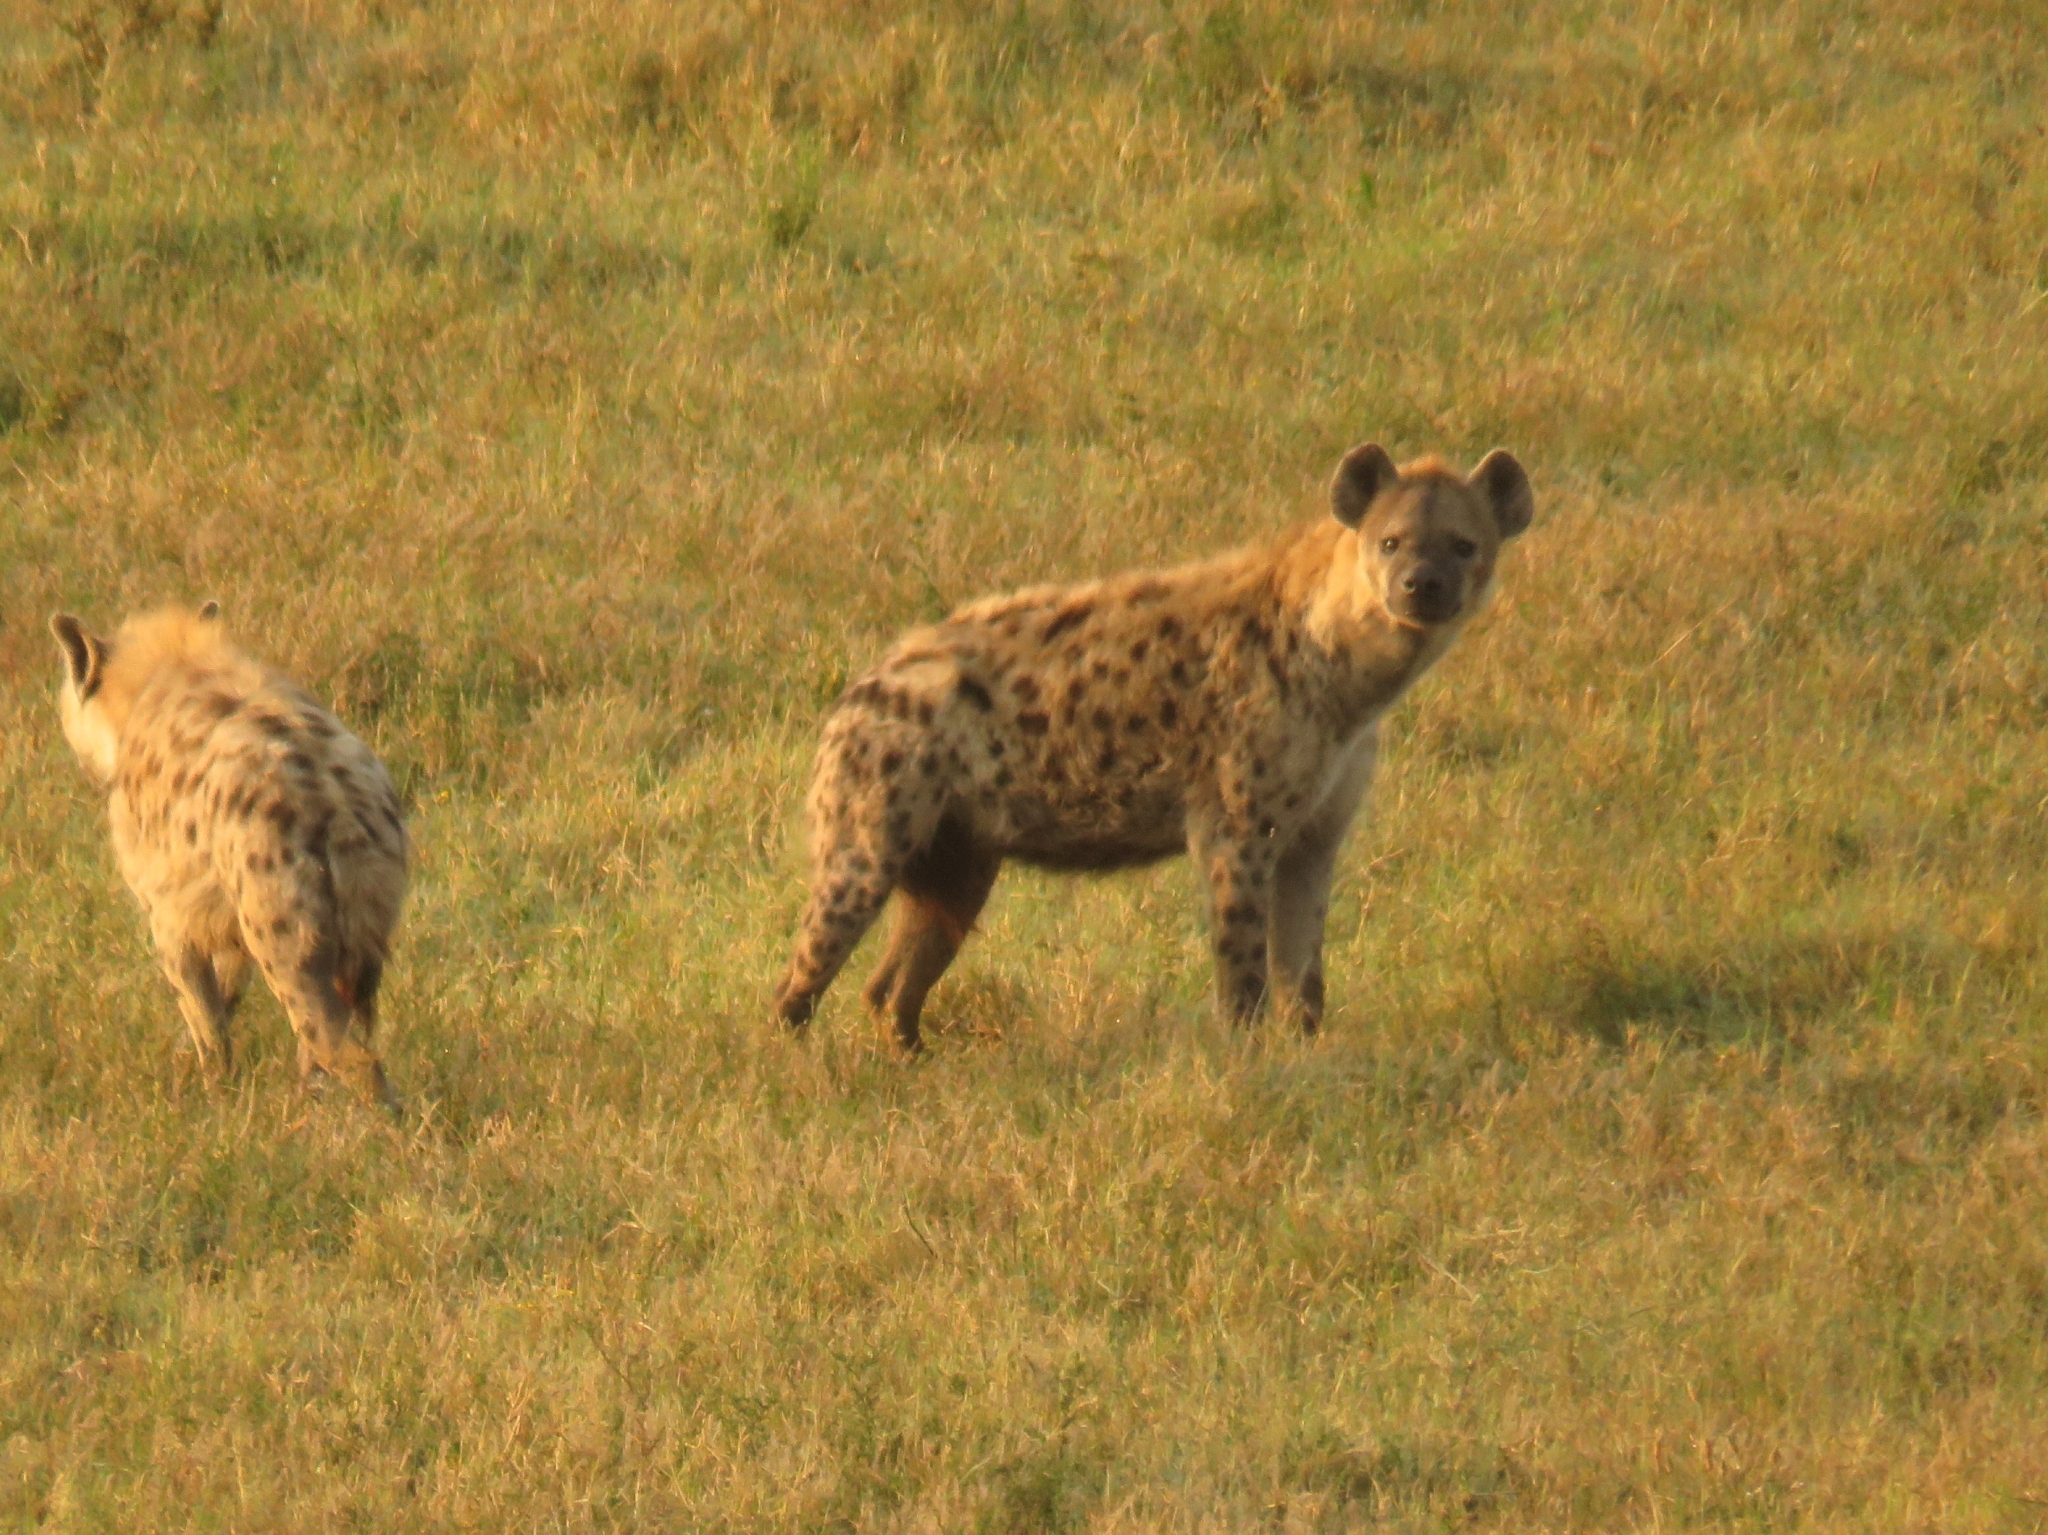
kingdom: Animalia
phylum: Chordata
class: Mammalia
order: Carnivora
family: Hyaenidae
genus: Crocuta
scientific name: Crocuta crocuta
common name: Spotted hyaena
